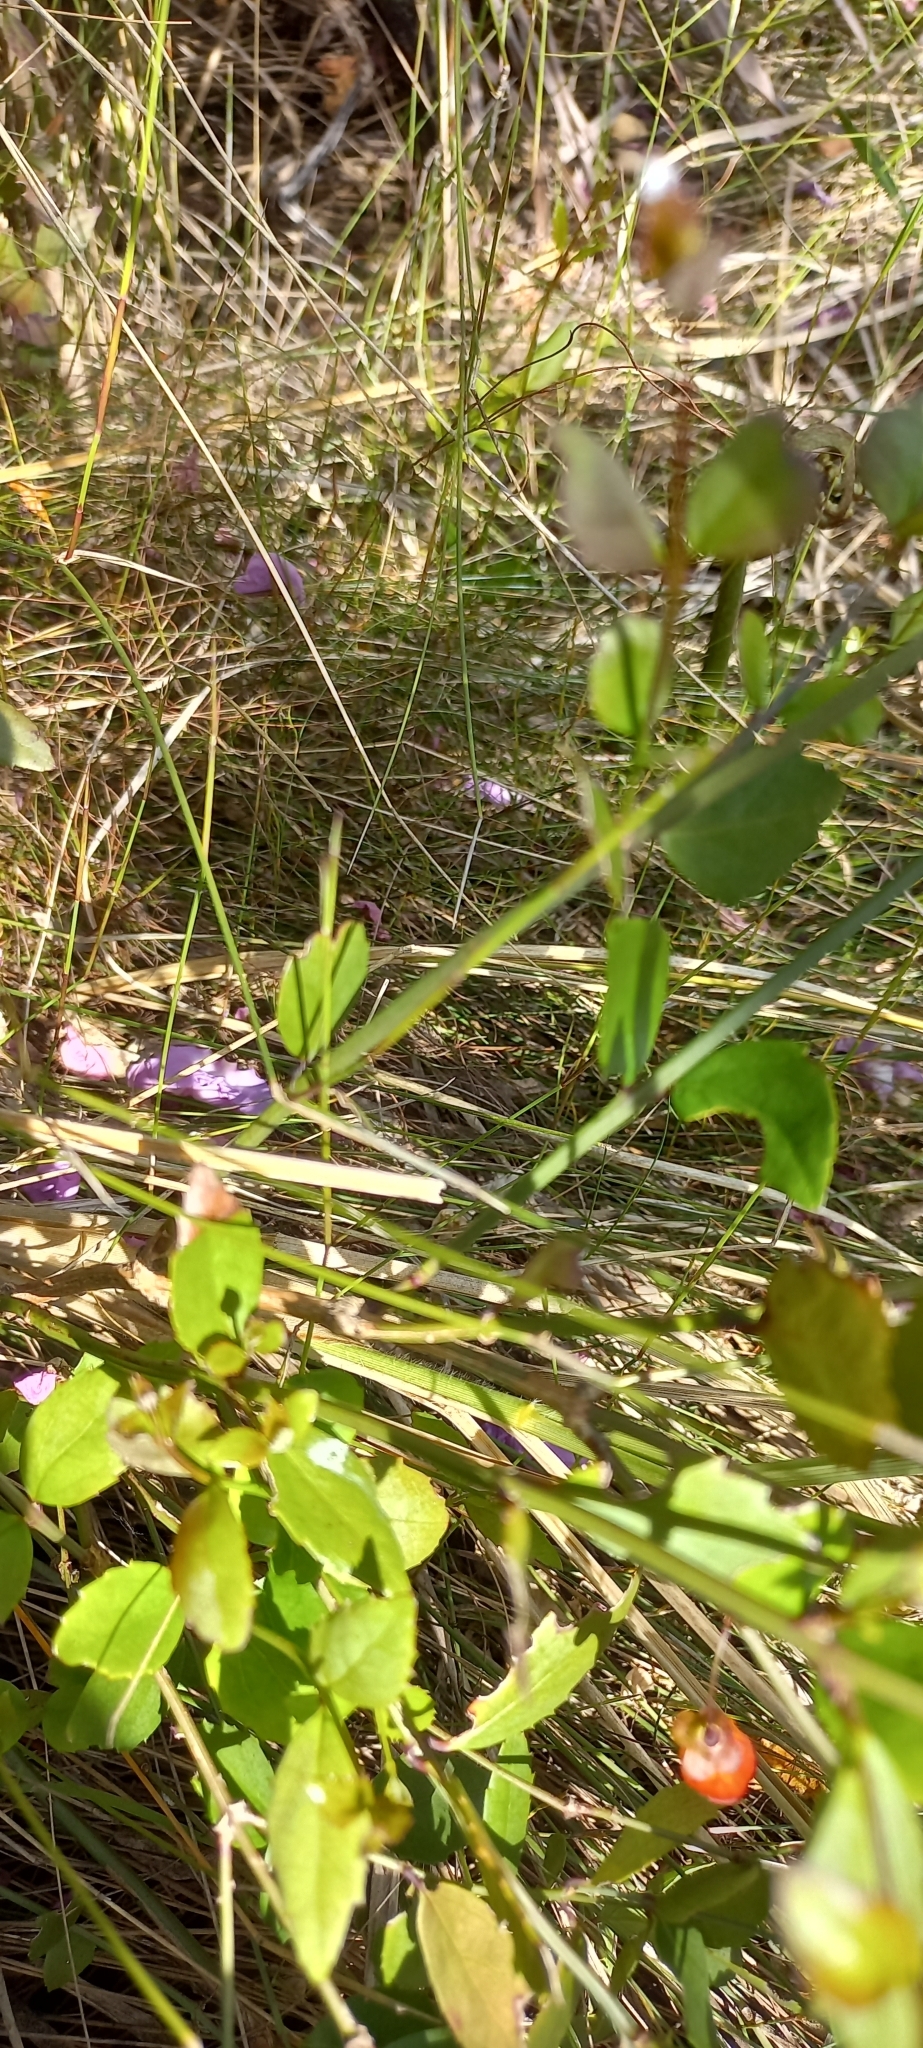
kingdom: Plantae
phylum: Tracheophyta
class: Magnoliopsida
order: Lamiales
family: Stilbaceae
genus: Halleria
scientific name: Halleria lucida
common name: Tree fuschia
